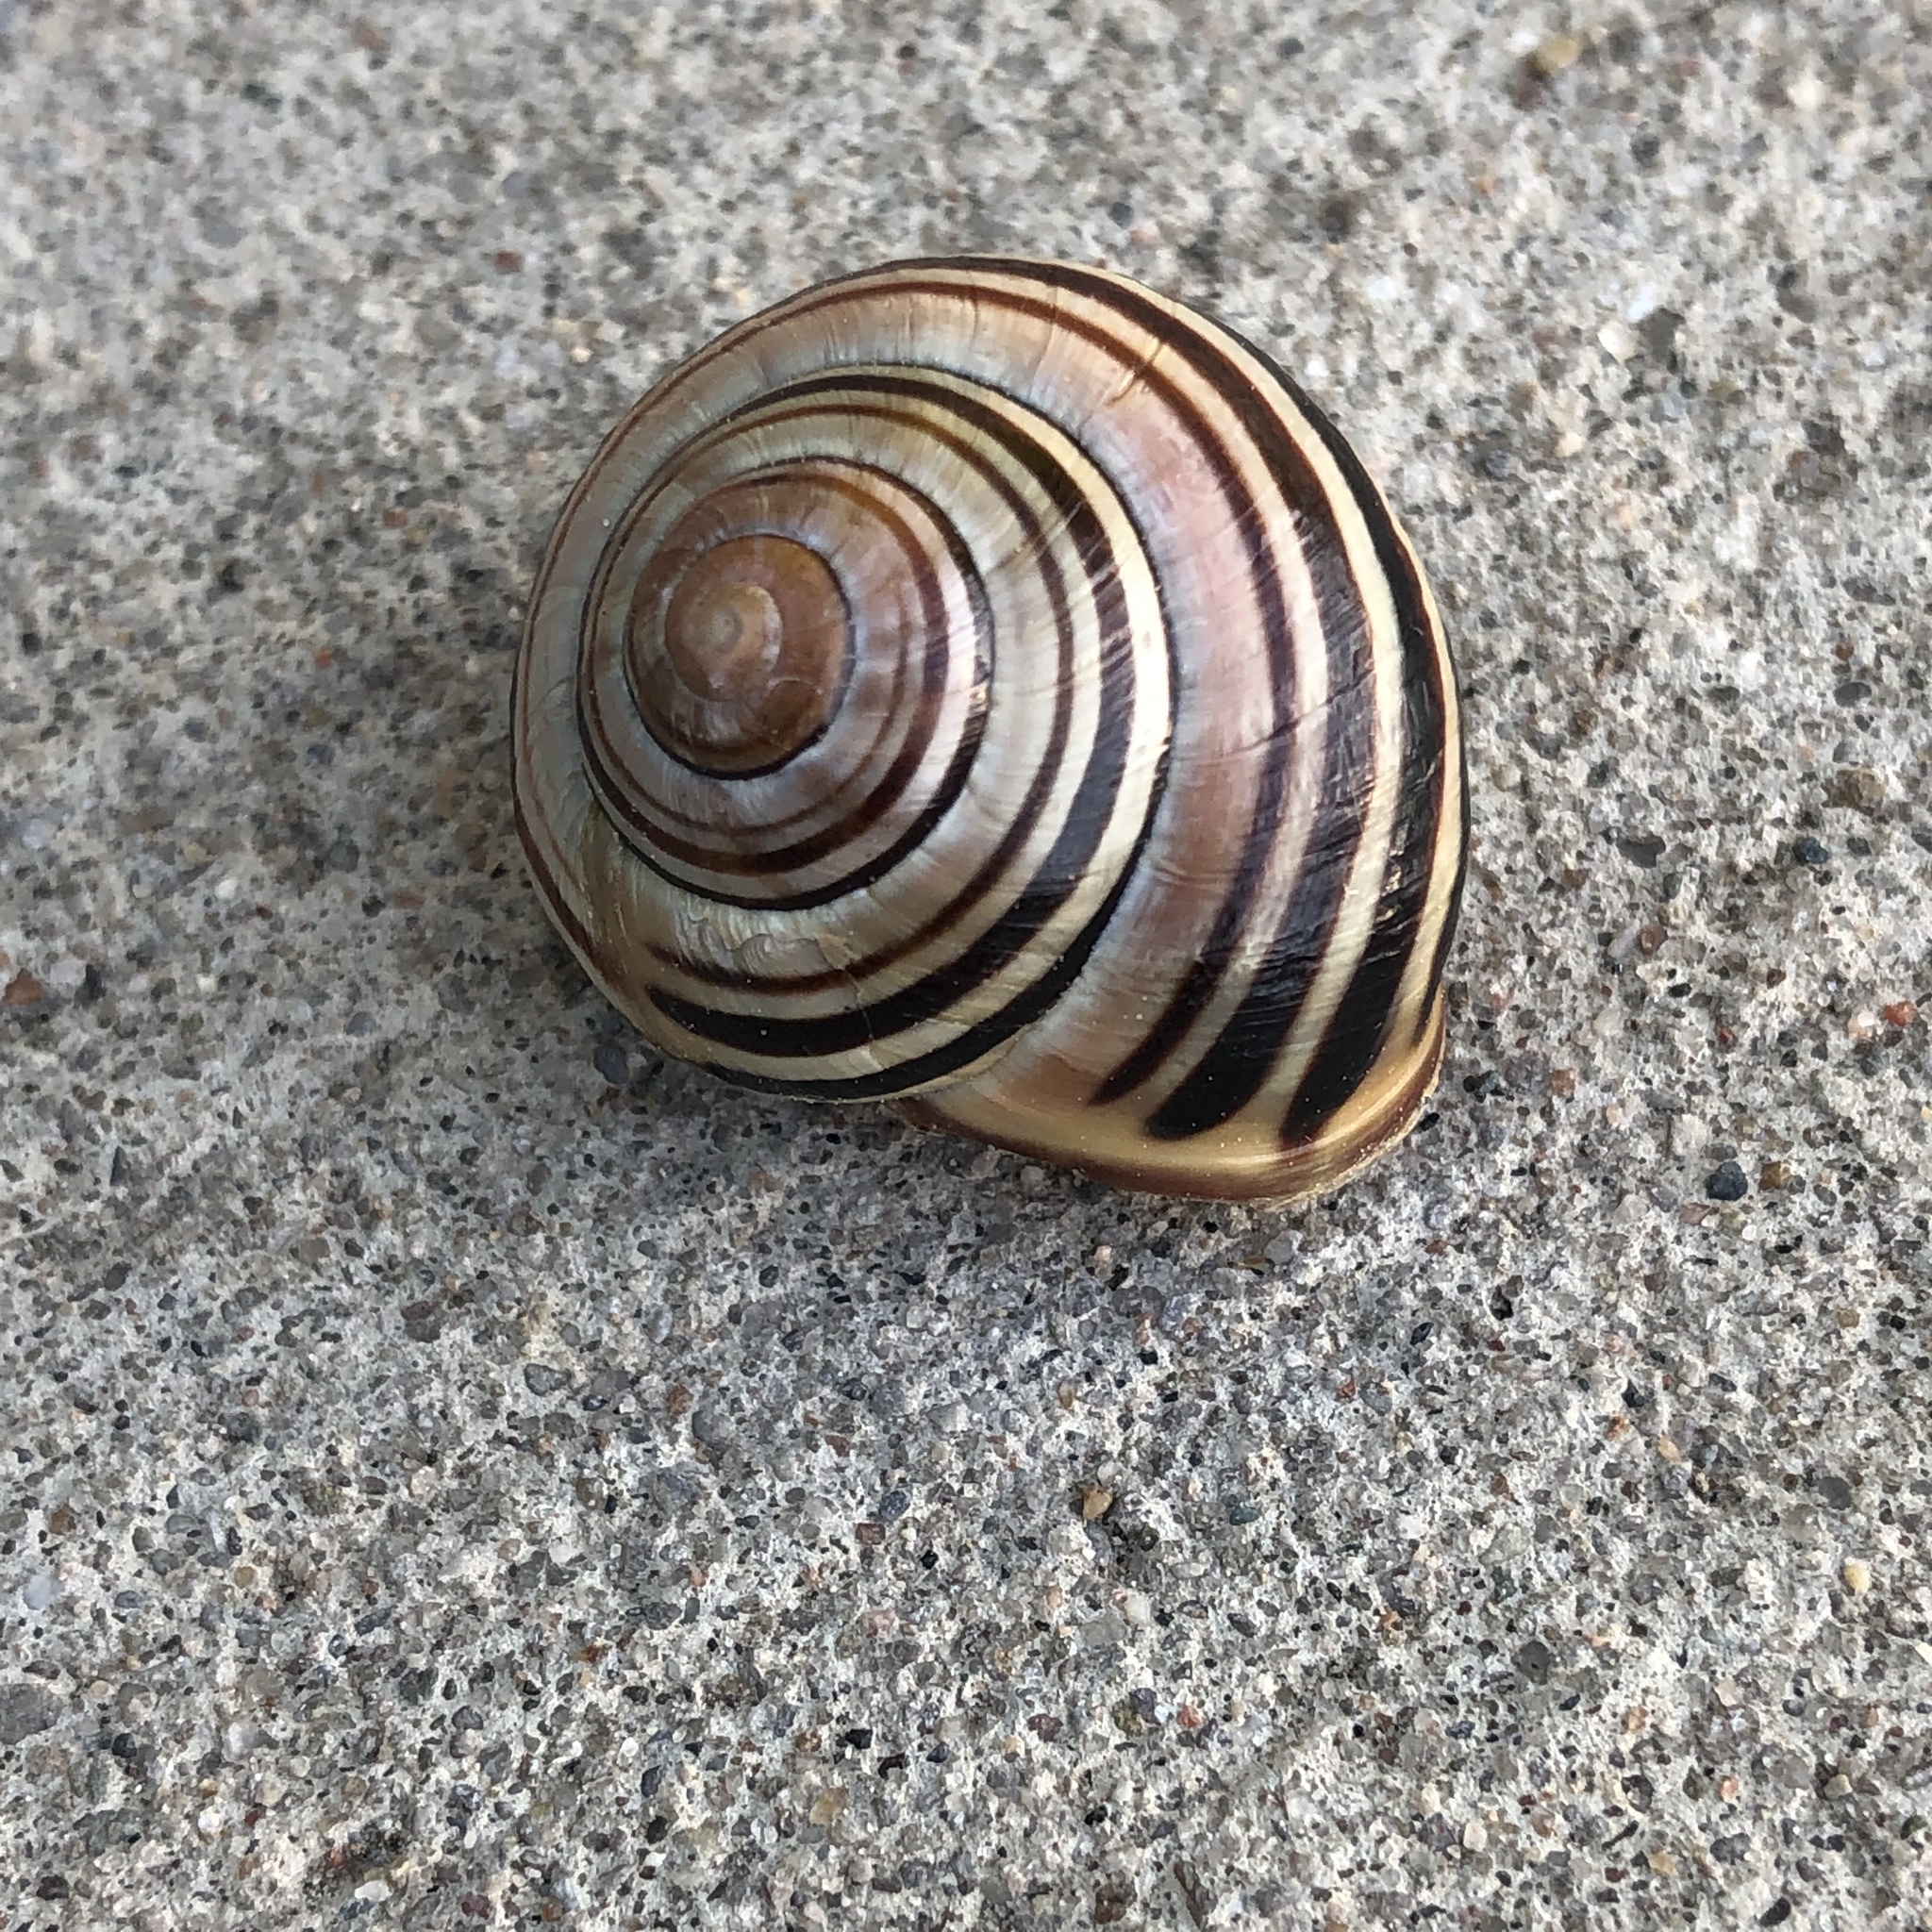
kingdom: Animalia
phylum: Mollusca
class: Gastropoda
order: Stylommatophora
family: Helicidae
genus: Cepaea
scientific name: Cepaea nemoralis
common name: Grovesnail
